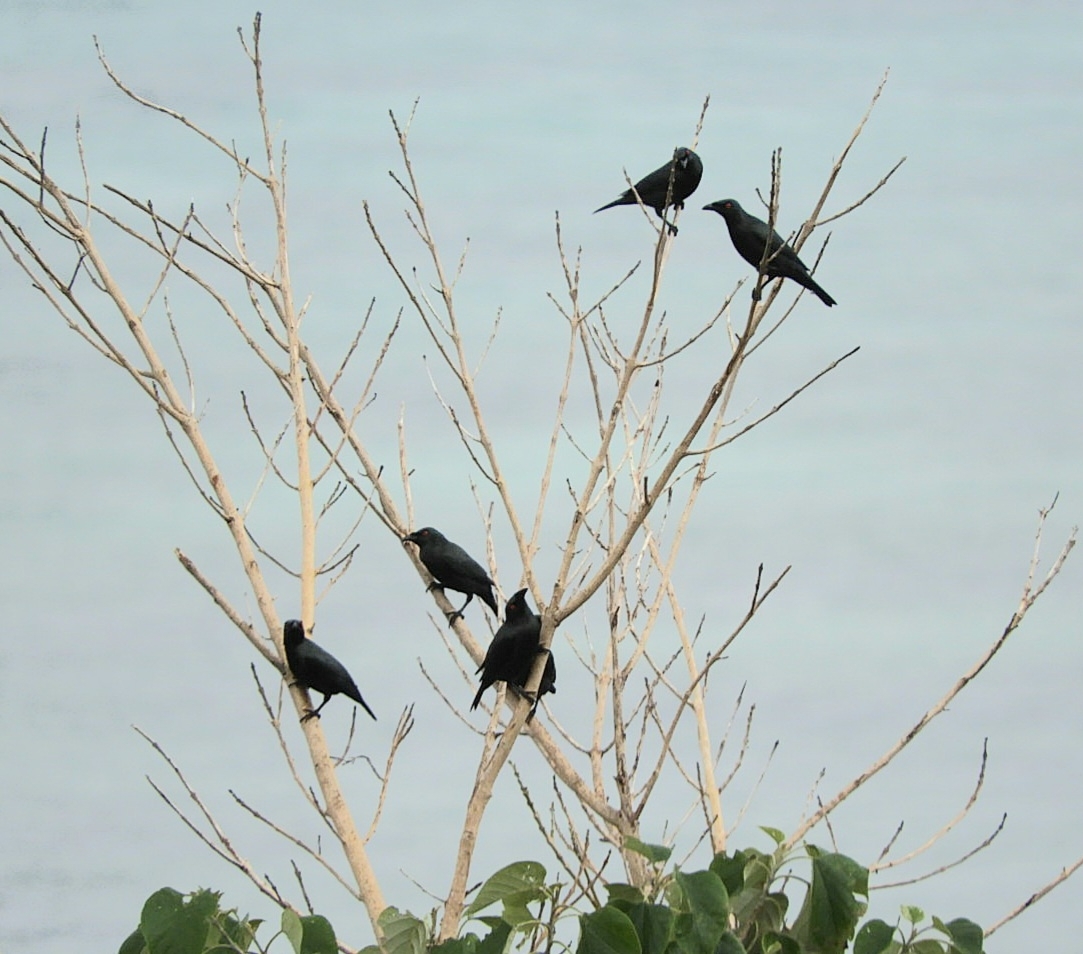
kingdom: Animalia
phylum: Chordata
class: Aves
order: Passeriformes
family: Sturnidae
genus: Aplonis
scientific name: Aplonis panayensis
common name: Asian glossy starling
